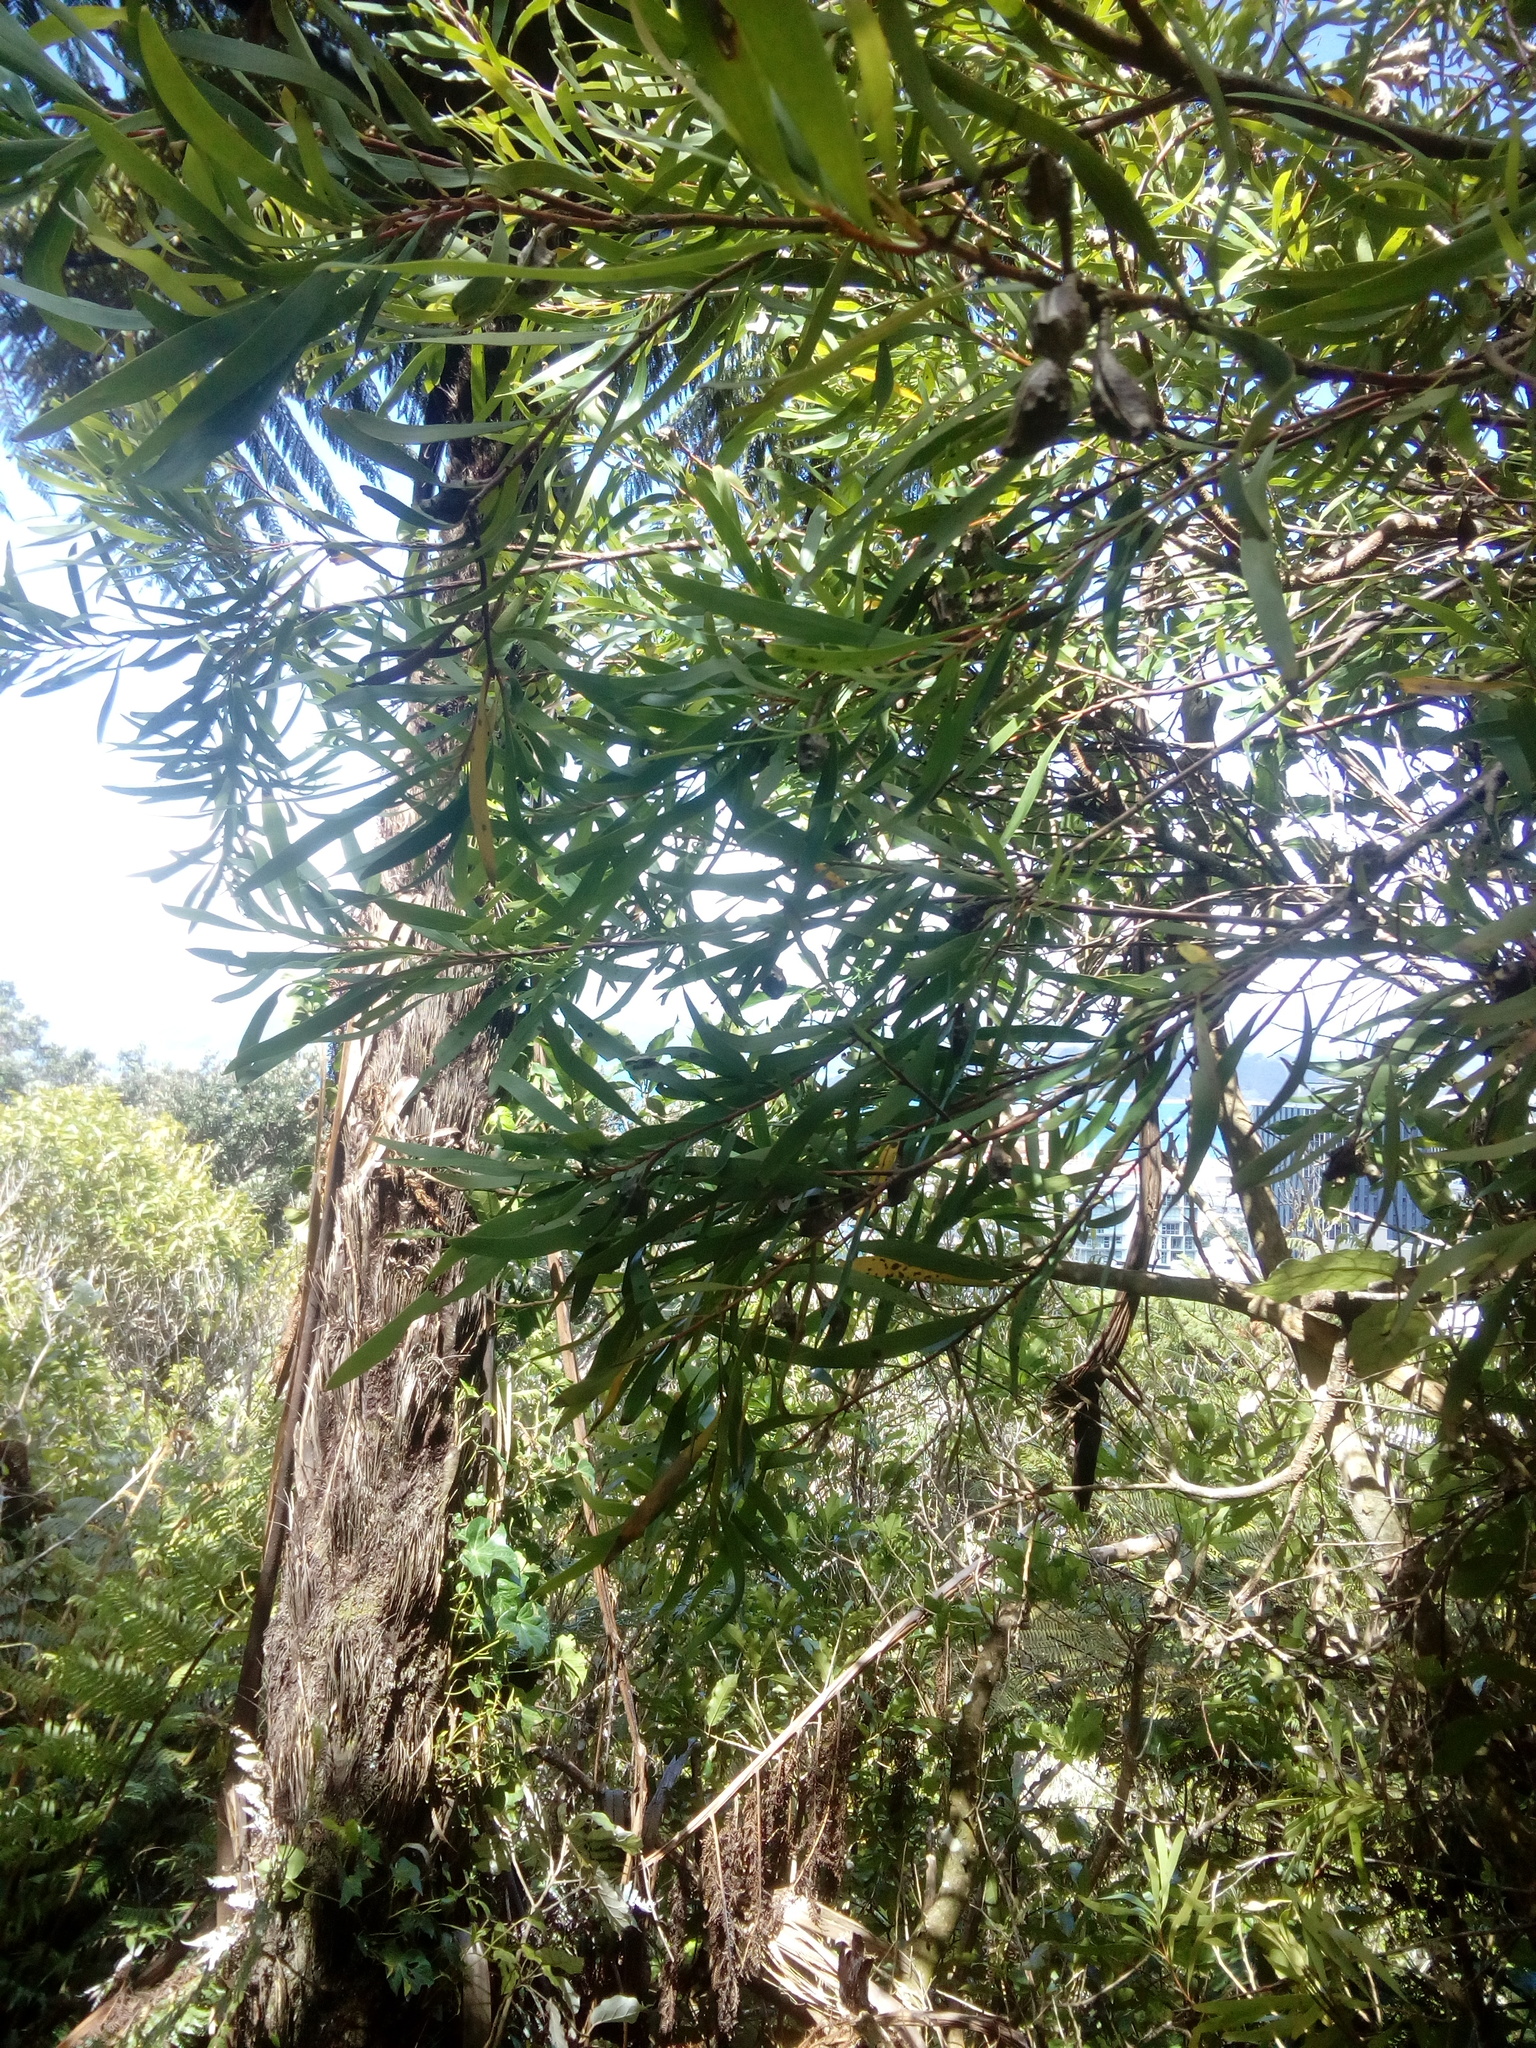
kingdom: Plantae
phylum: Tracheophyta
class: Magnoliopsida
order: Proteales
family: Proteaceae
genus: Hakea
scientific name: Hakea salicifolia
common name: Willow hakea
